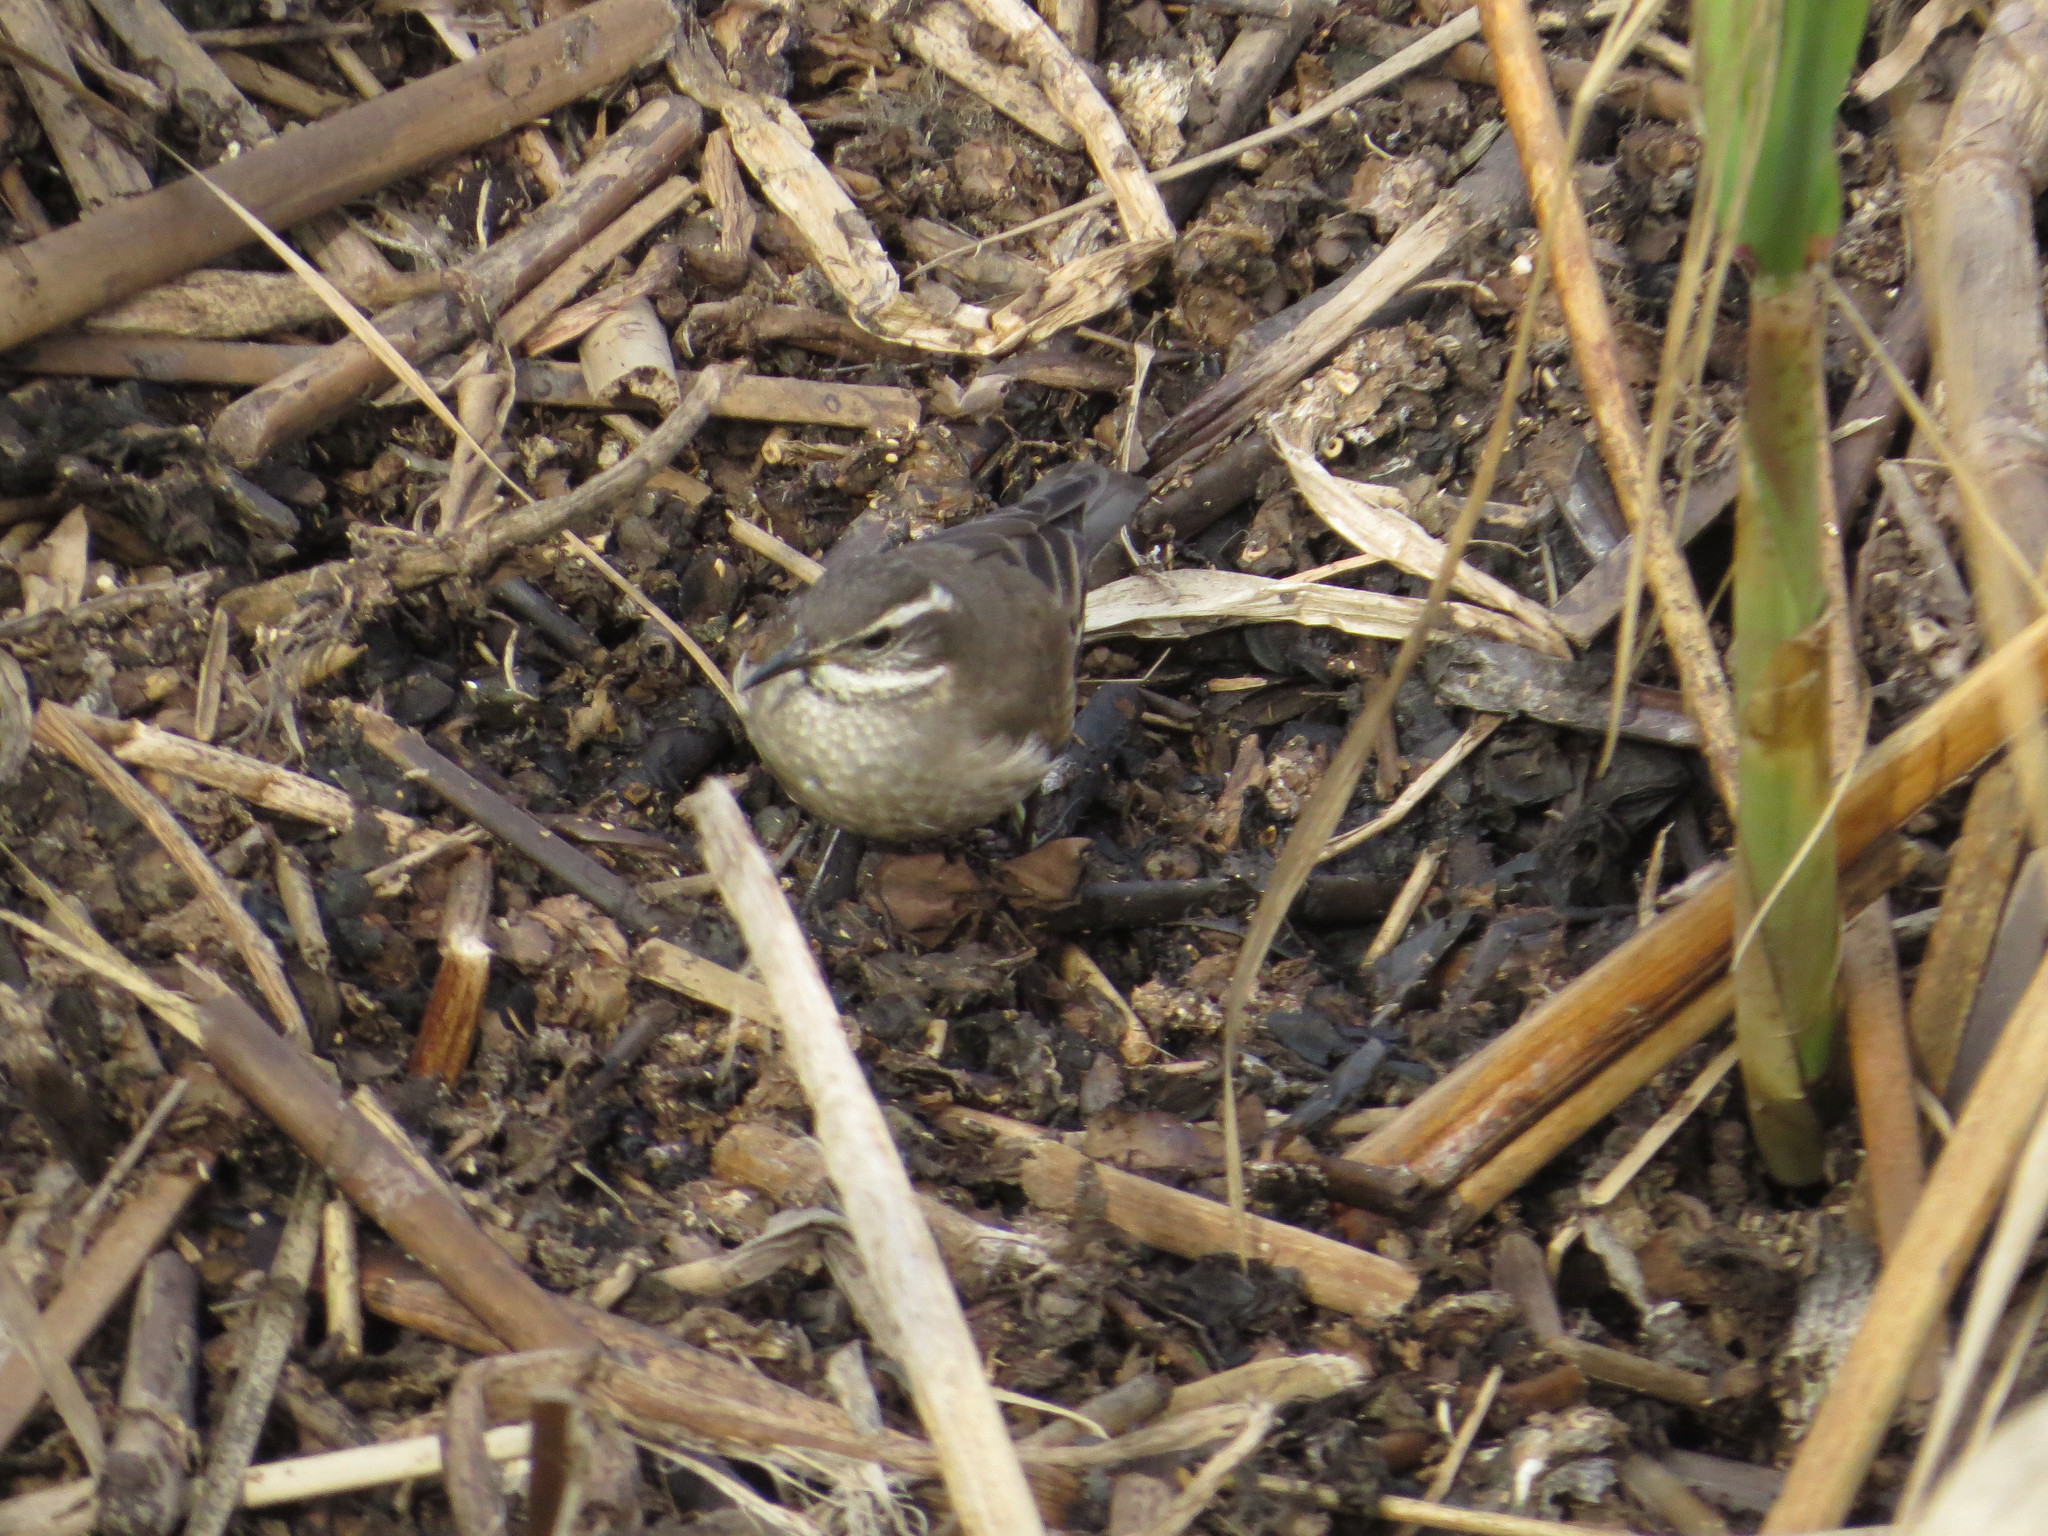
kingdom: Animalia
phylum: Chordata
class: Aves
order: Passeriformes
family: Furnariidae
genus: Cinclodes
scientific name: Cinclodes fuscus
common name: Buff-winged cinclodes
